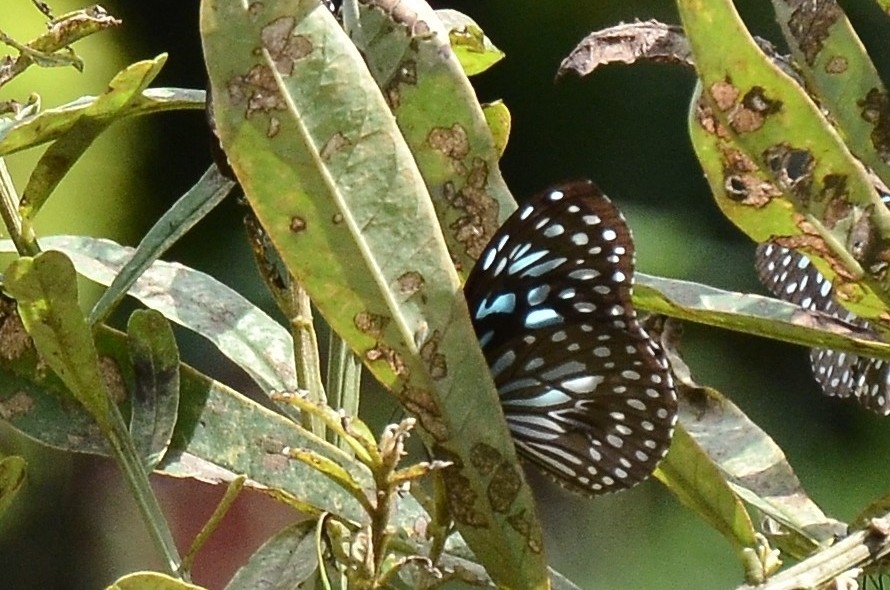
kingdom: Animalia
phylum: Arthropoda
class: Insecta
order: Lepidoptera
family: Nymphalidae
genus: Tirumala
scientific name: Tirumala septentrionis
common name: Dark blue tiger butterfly
